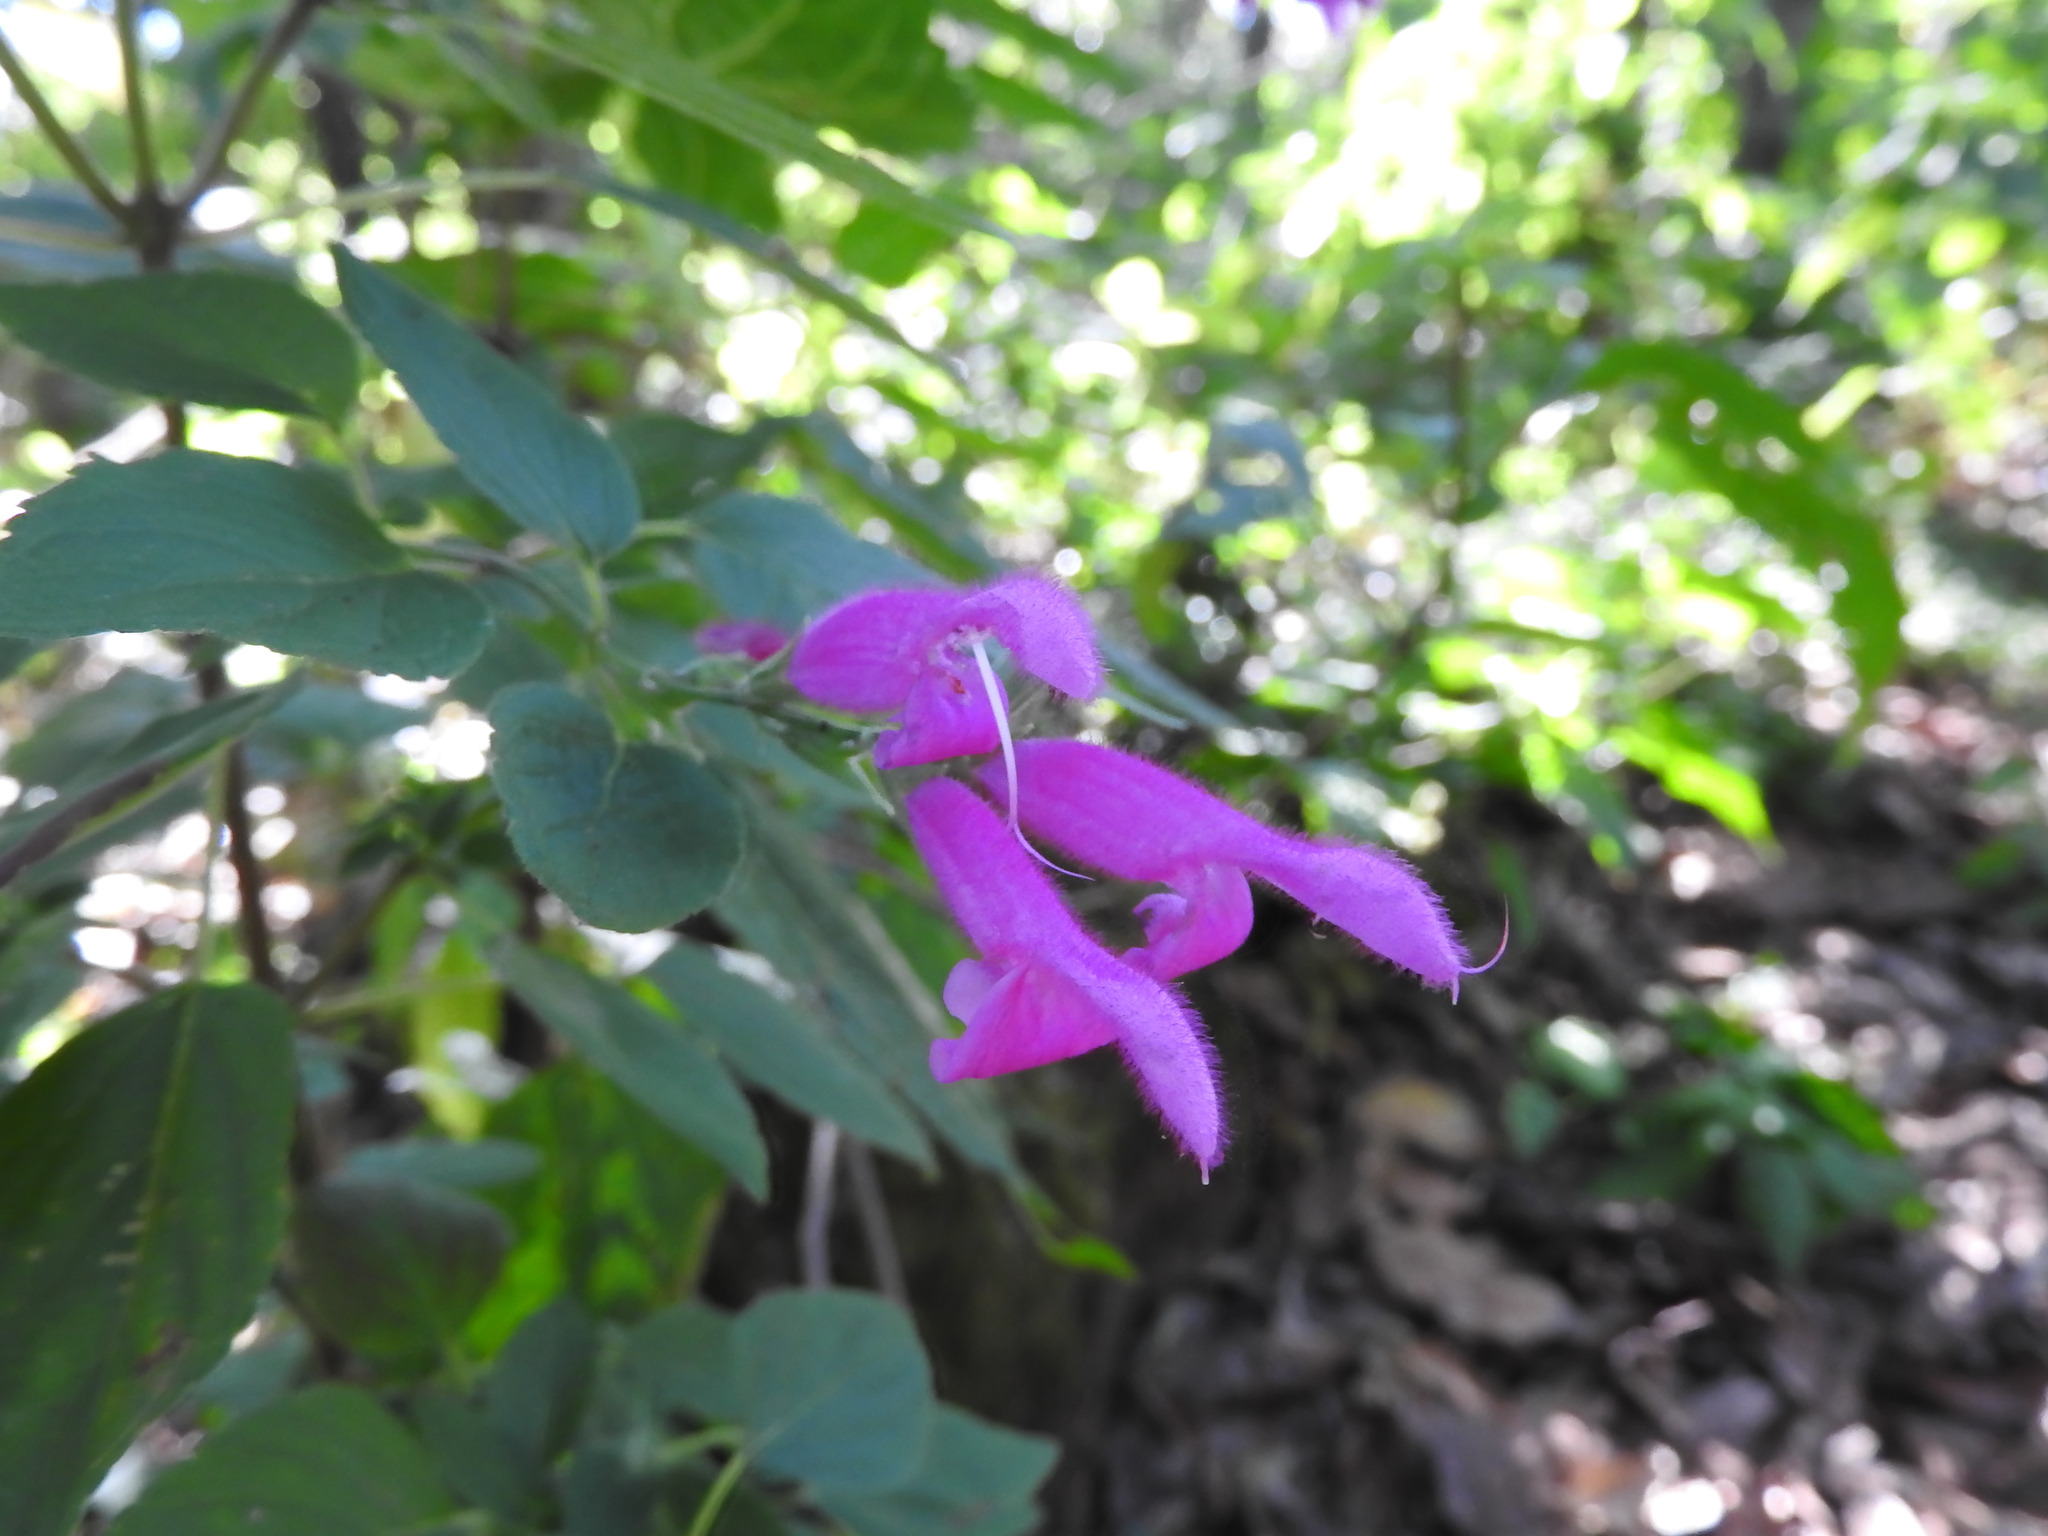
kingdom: Plantae
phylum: Tracheophyta
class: Magnoliopsida
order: Lamiales
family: Lamiaceae
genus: Salvia
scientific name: Salvia curviflora
